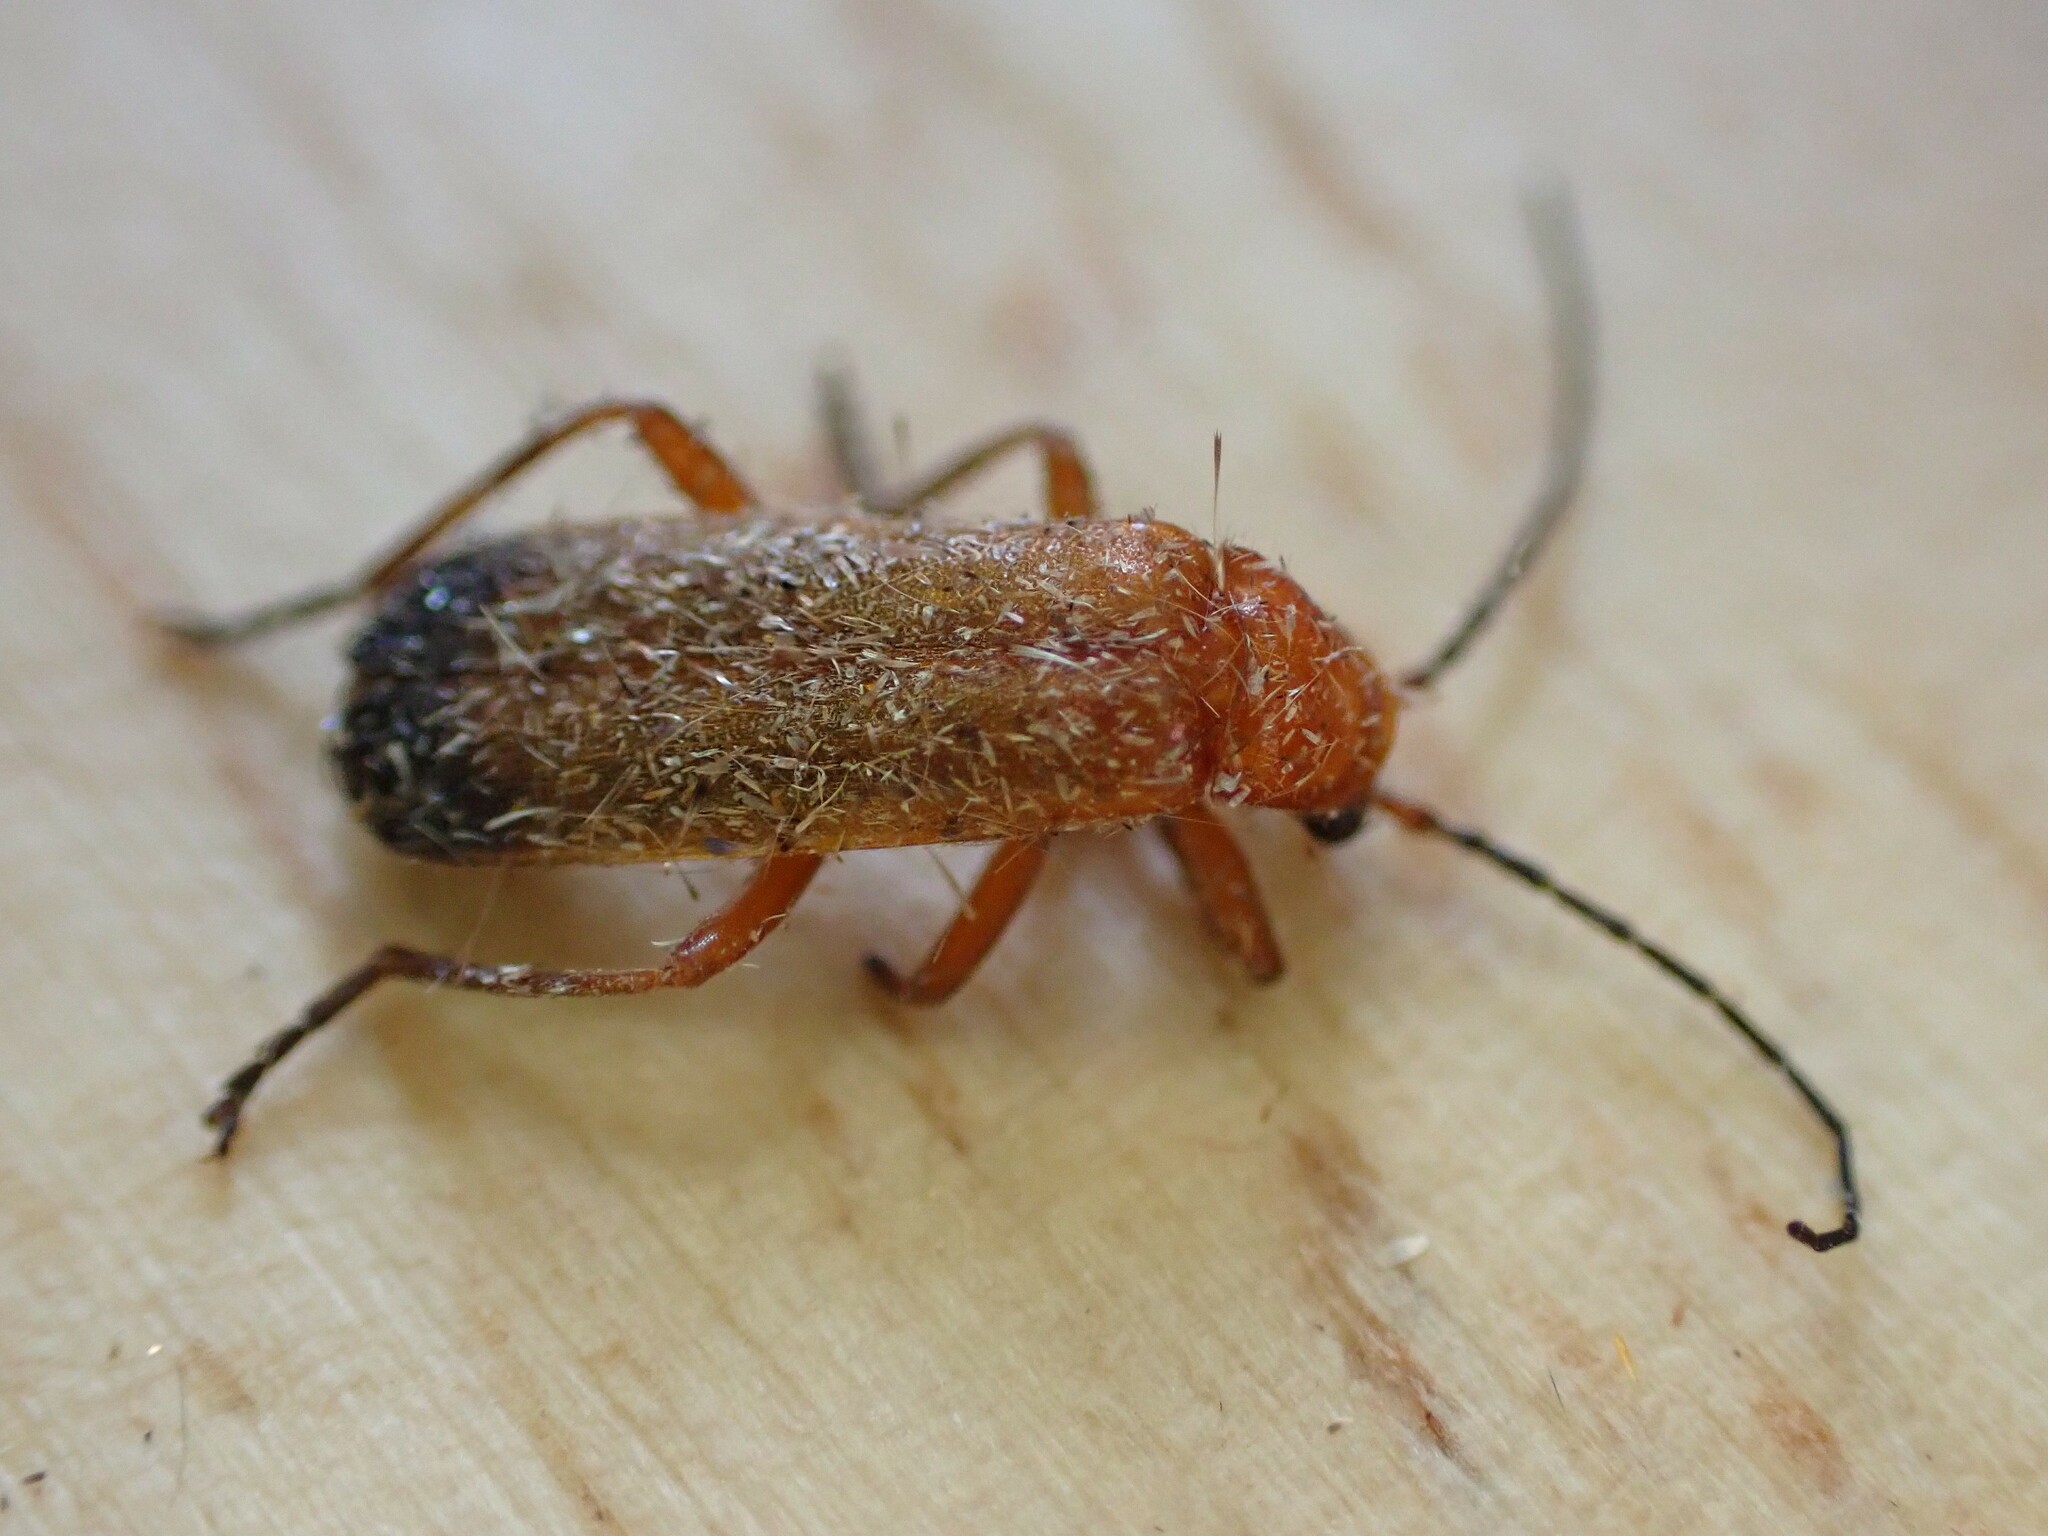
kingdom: Animalia
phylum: Arthropoda
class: Insecta
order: Coleoptera
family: Cantharidae
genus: Rhagonycha
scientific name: Rhagonycha fulva
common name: Common red soldier beetle
